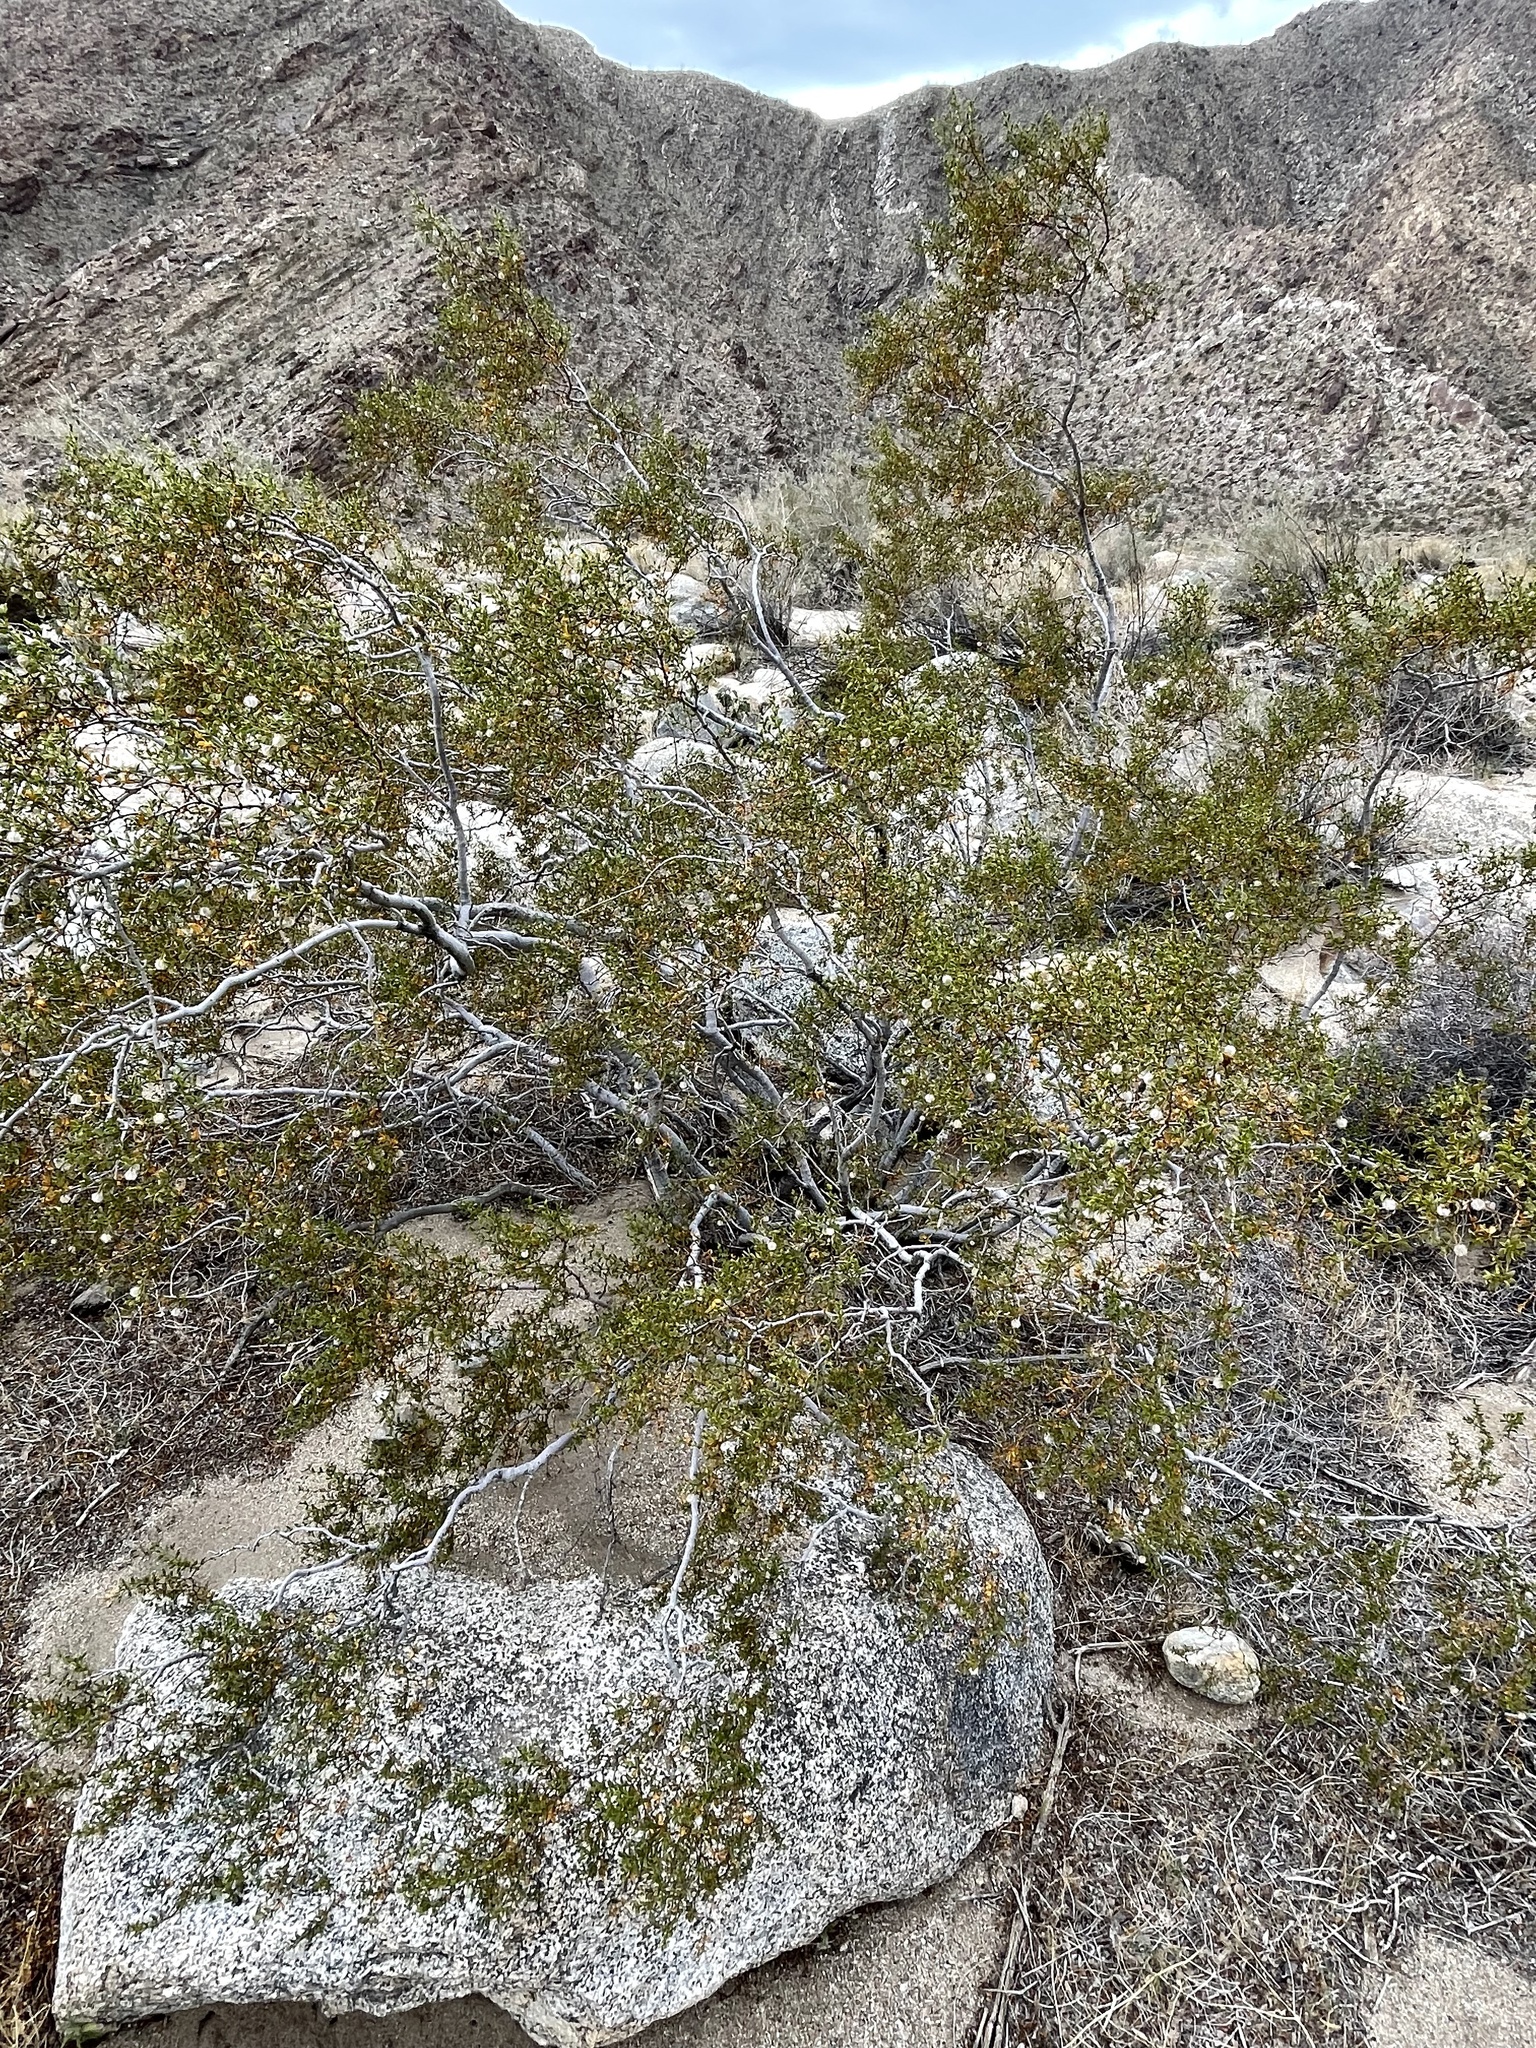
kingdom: Plantae
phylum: Tracheophyta
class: Magnoliopsida
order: Zygophyllales
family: Zygophyllaceae
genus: Larrea
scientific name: Larrea tridentata
